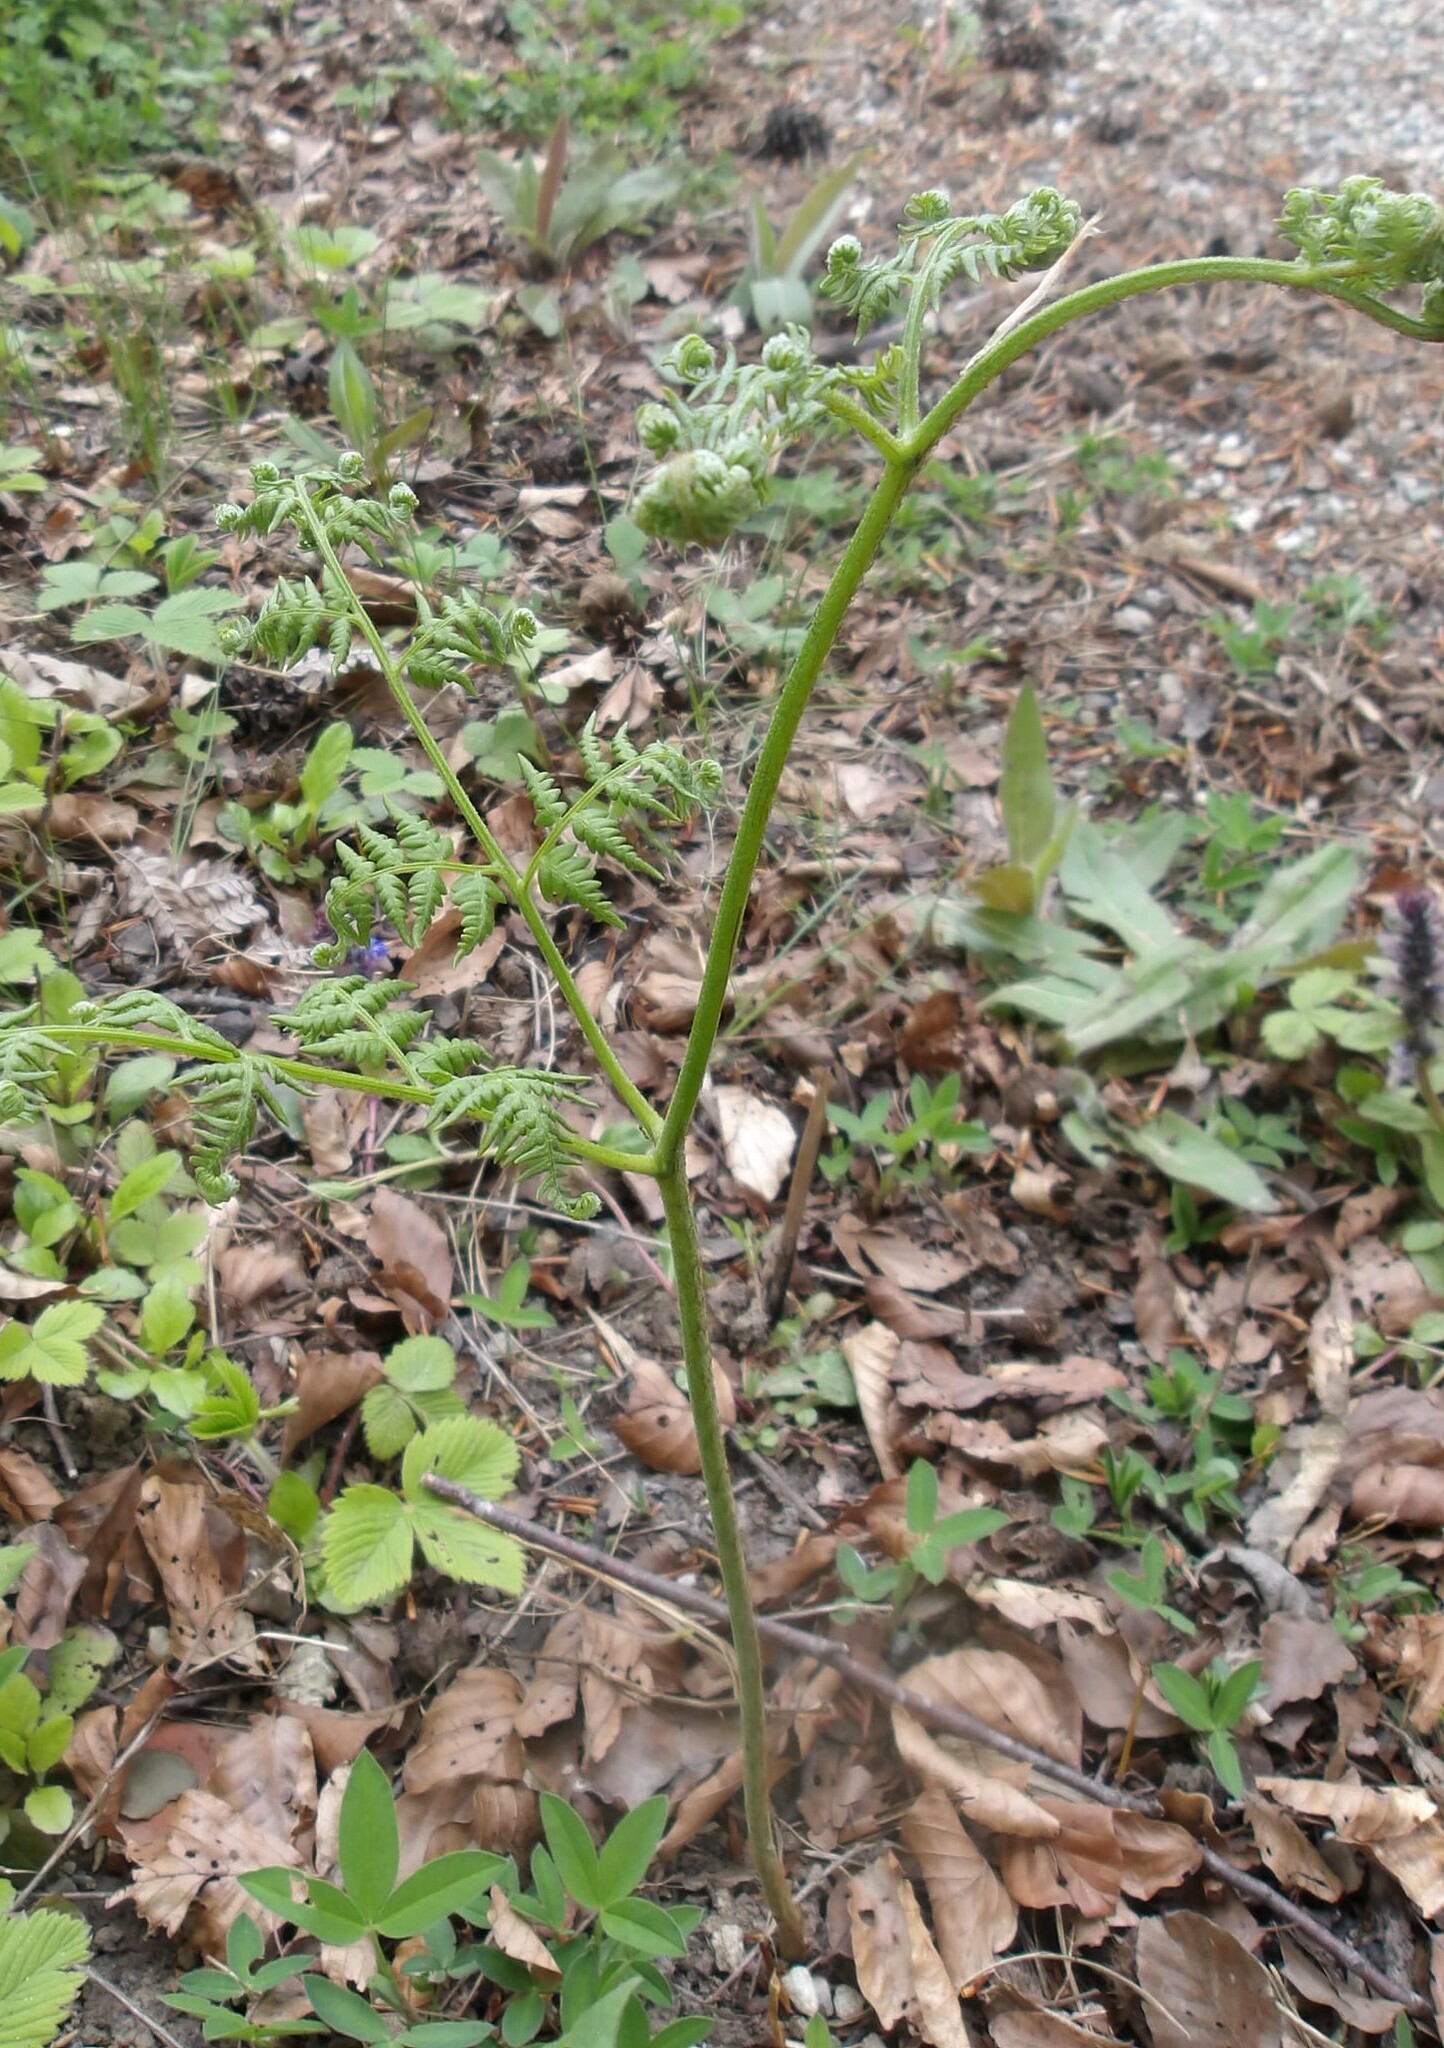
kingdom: Plantae
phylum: Tracheophyta
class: Polypodiopsida
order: Polypodiales
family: Dennstaedtiaceae
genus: Pteridium
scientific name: Pteridium aquilinum
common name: Bracken
